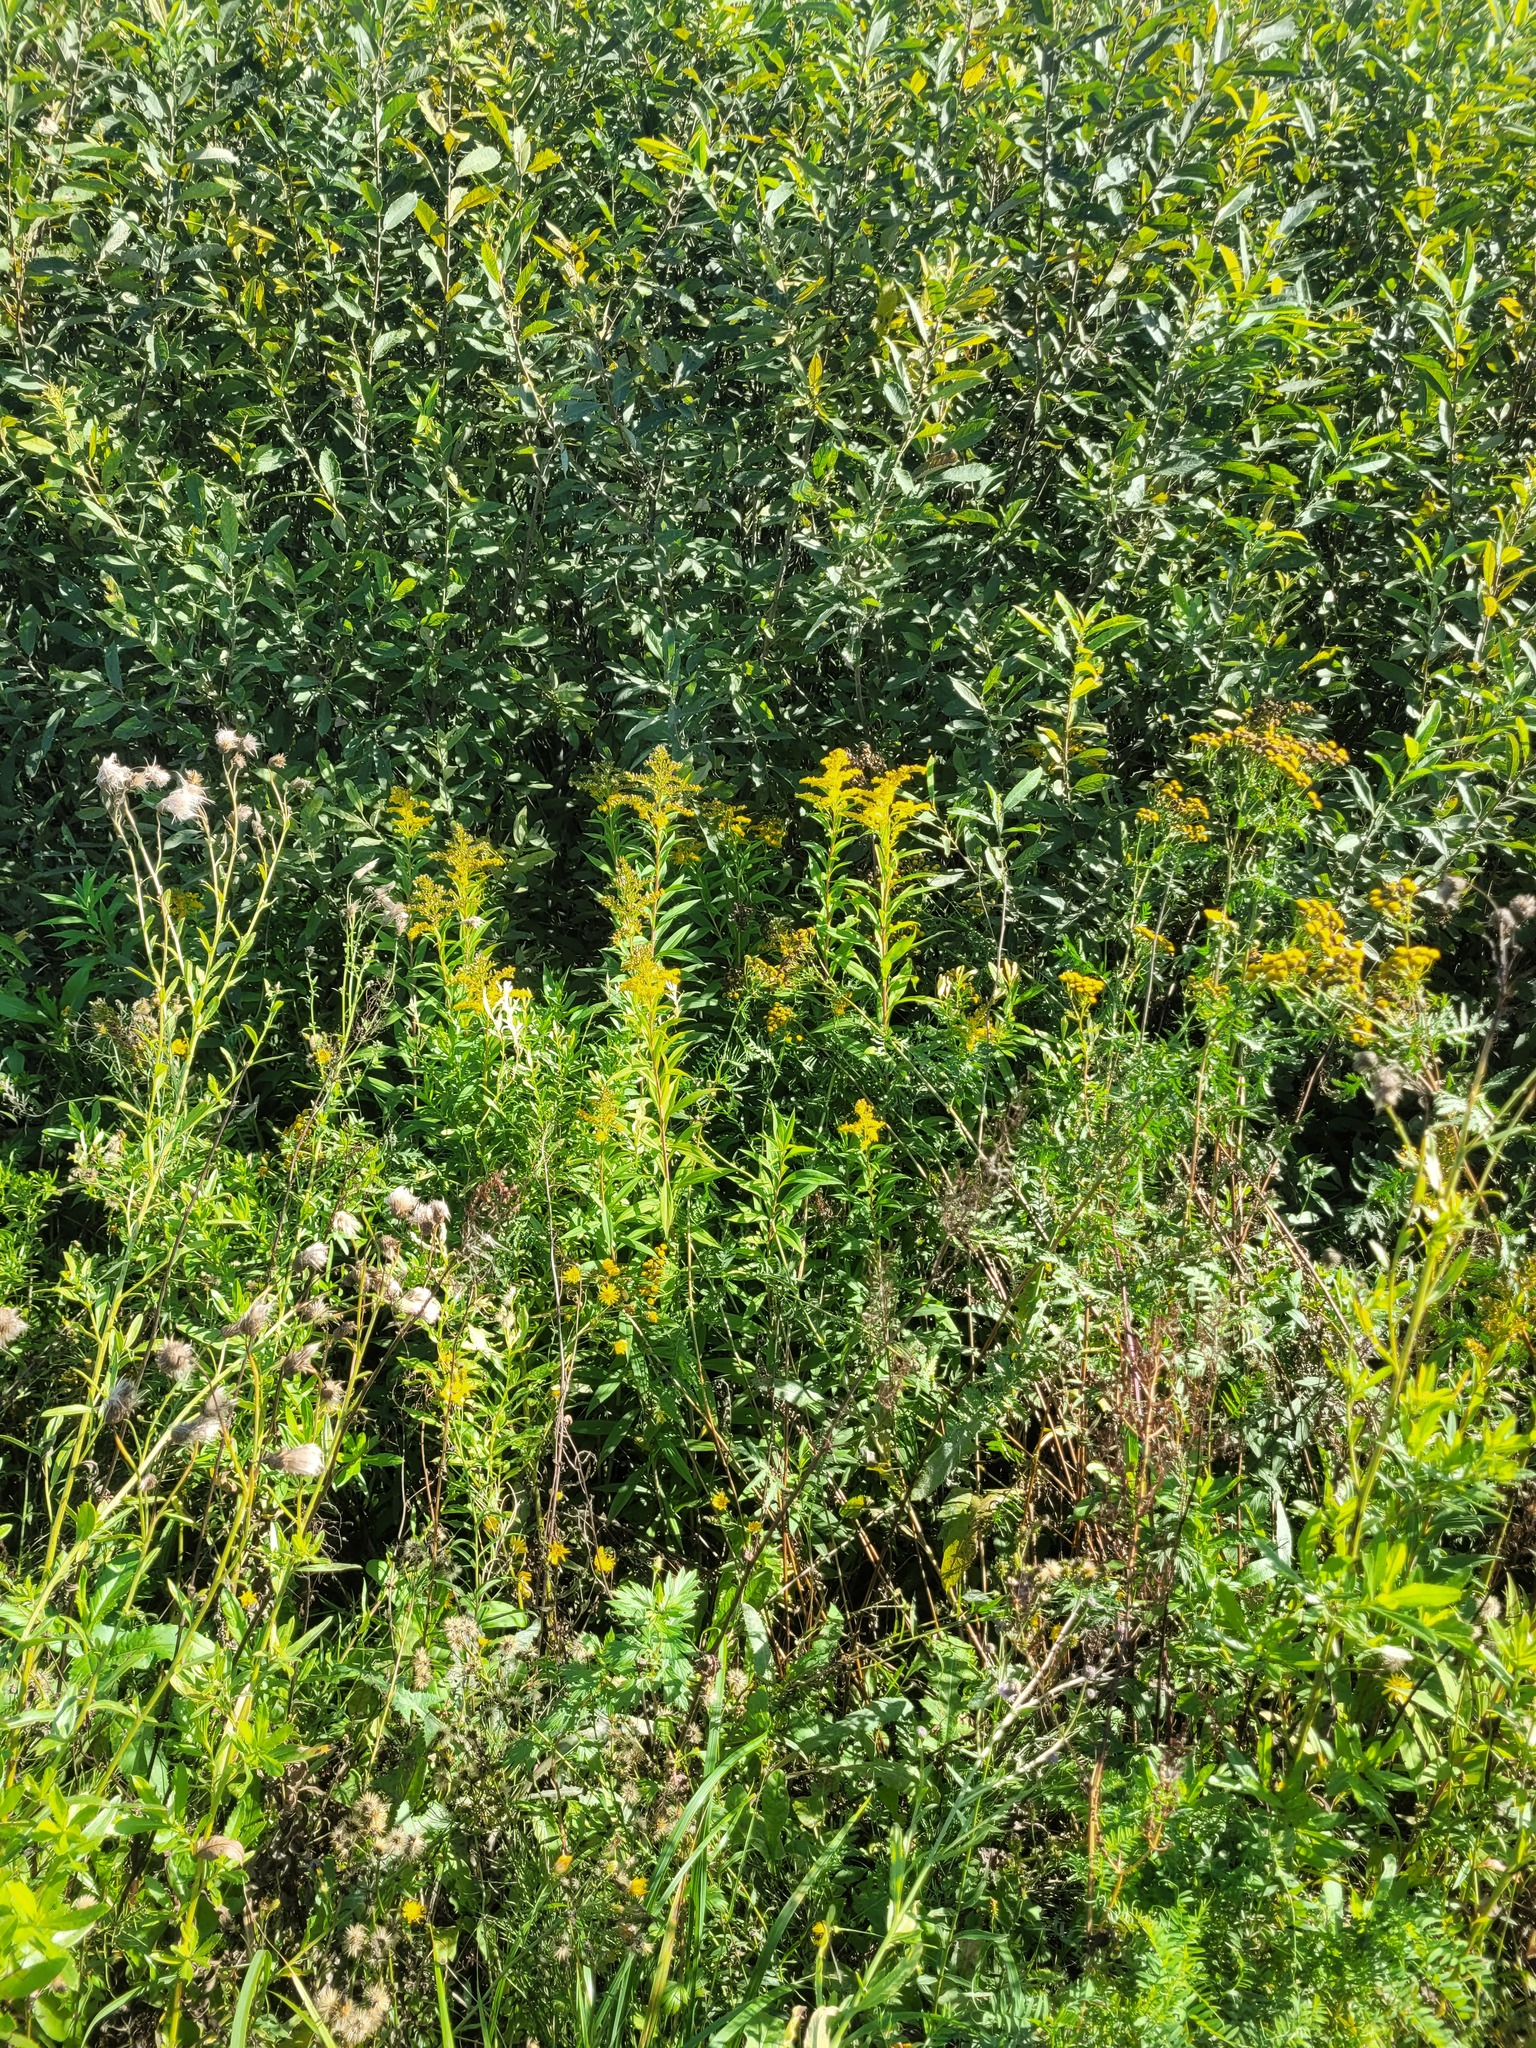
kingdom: Plantae
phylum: Tracheophyta
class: Magnoliopsida
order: Asterales
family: Asteraceae
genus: Solidago
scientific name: Solidago gigantea
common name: Giant goldenrod
